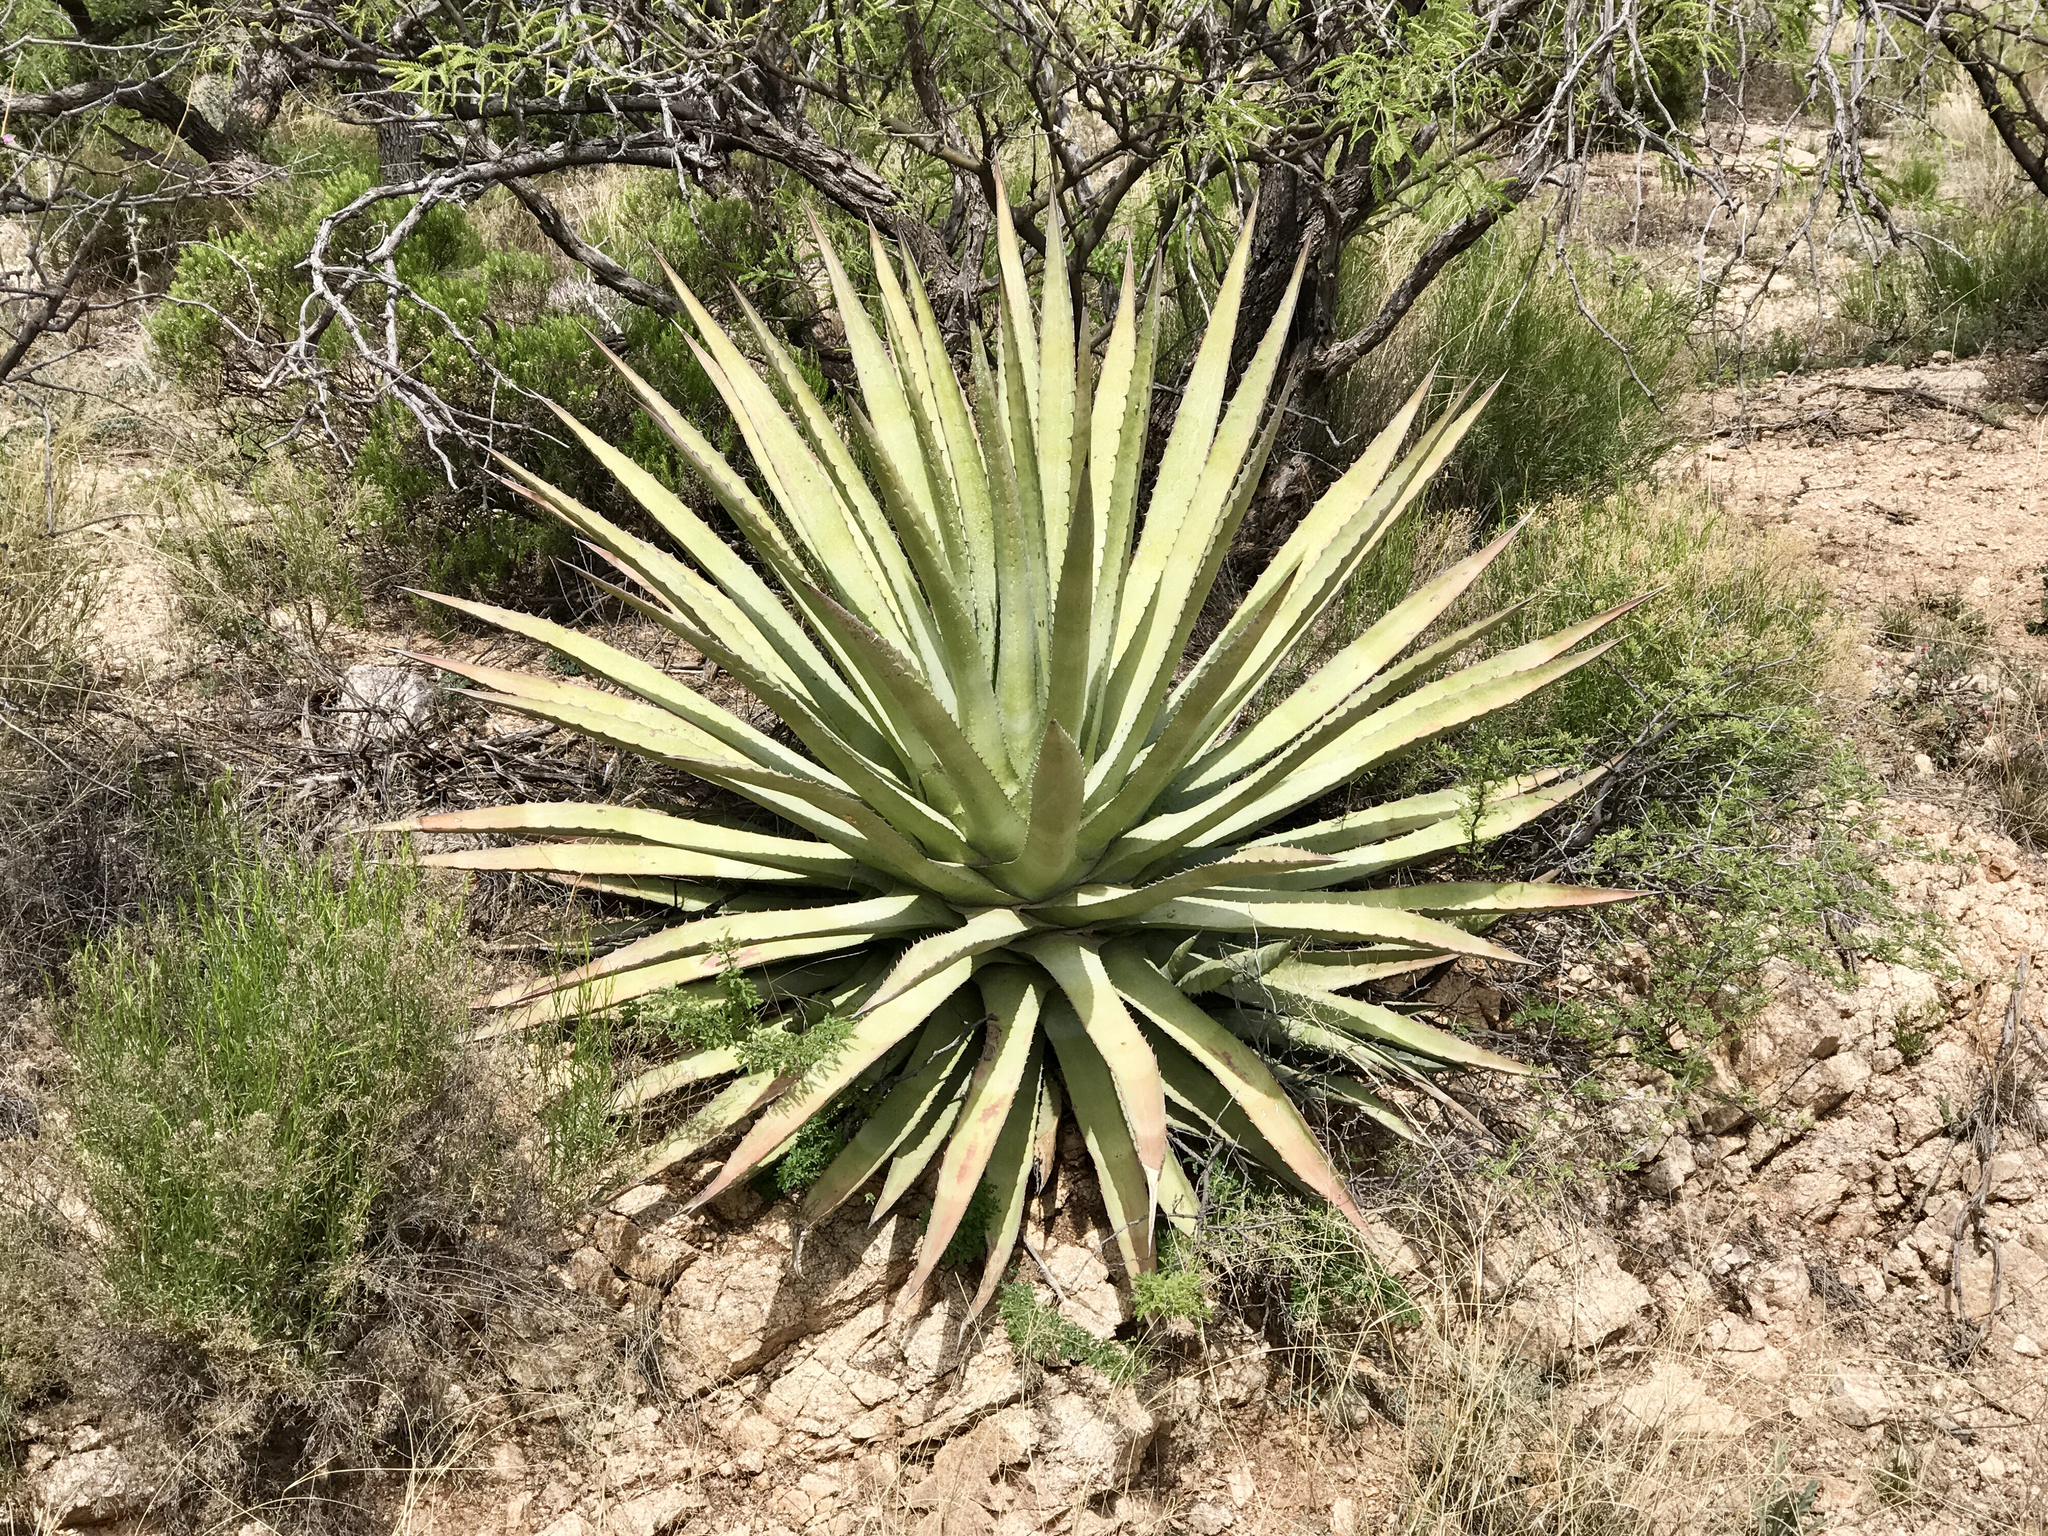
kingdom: Plantae
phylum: Tracheophyta
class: Liliopsida
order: Asparagales
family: Asparagaceae
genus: Agave
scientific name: Agave palmeri
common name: Palmer agave
